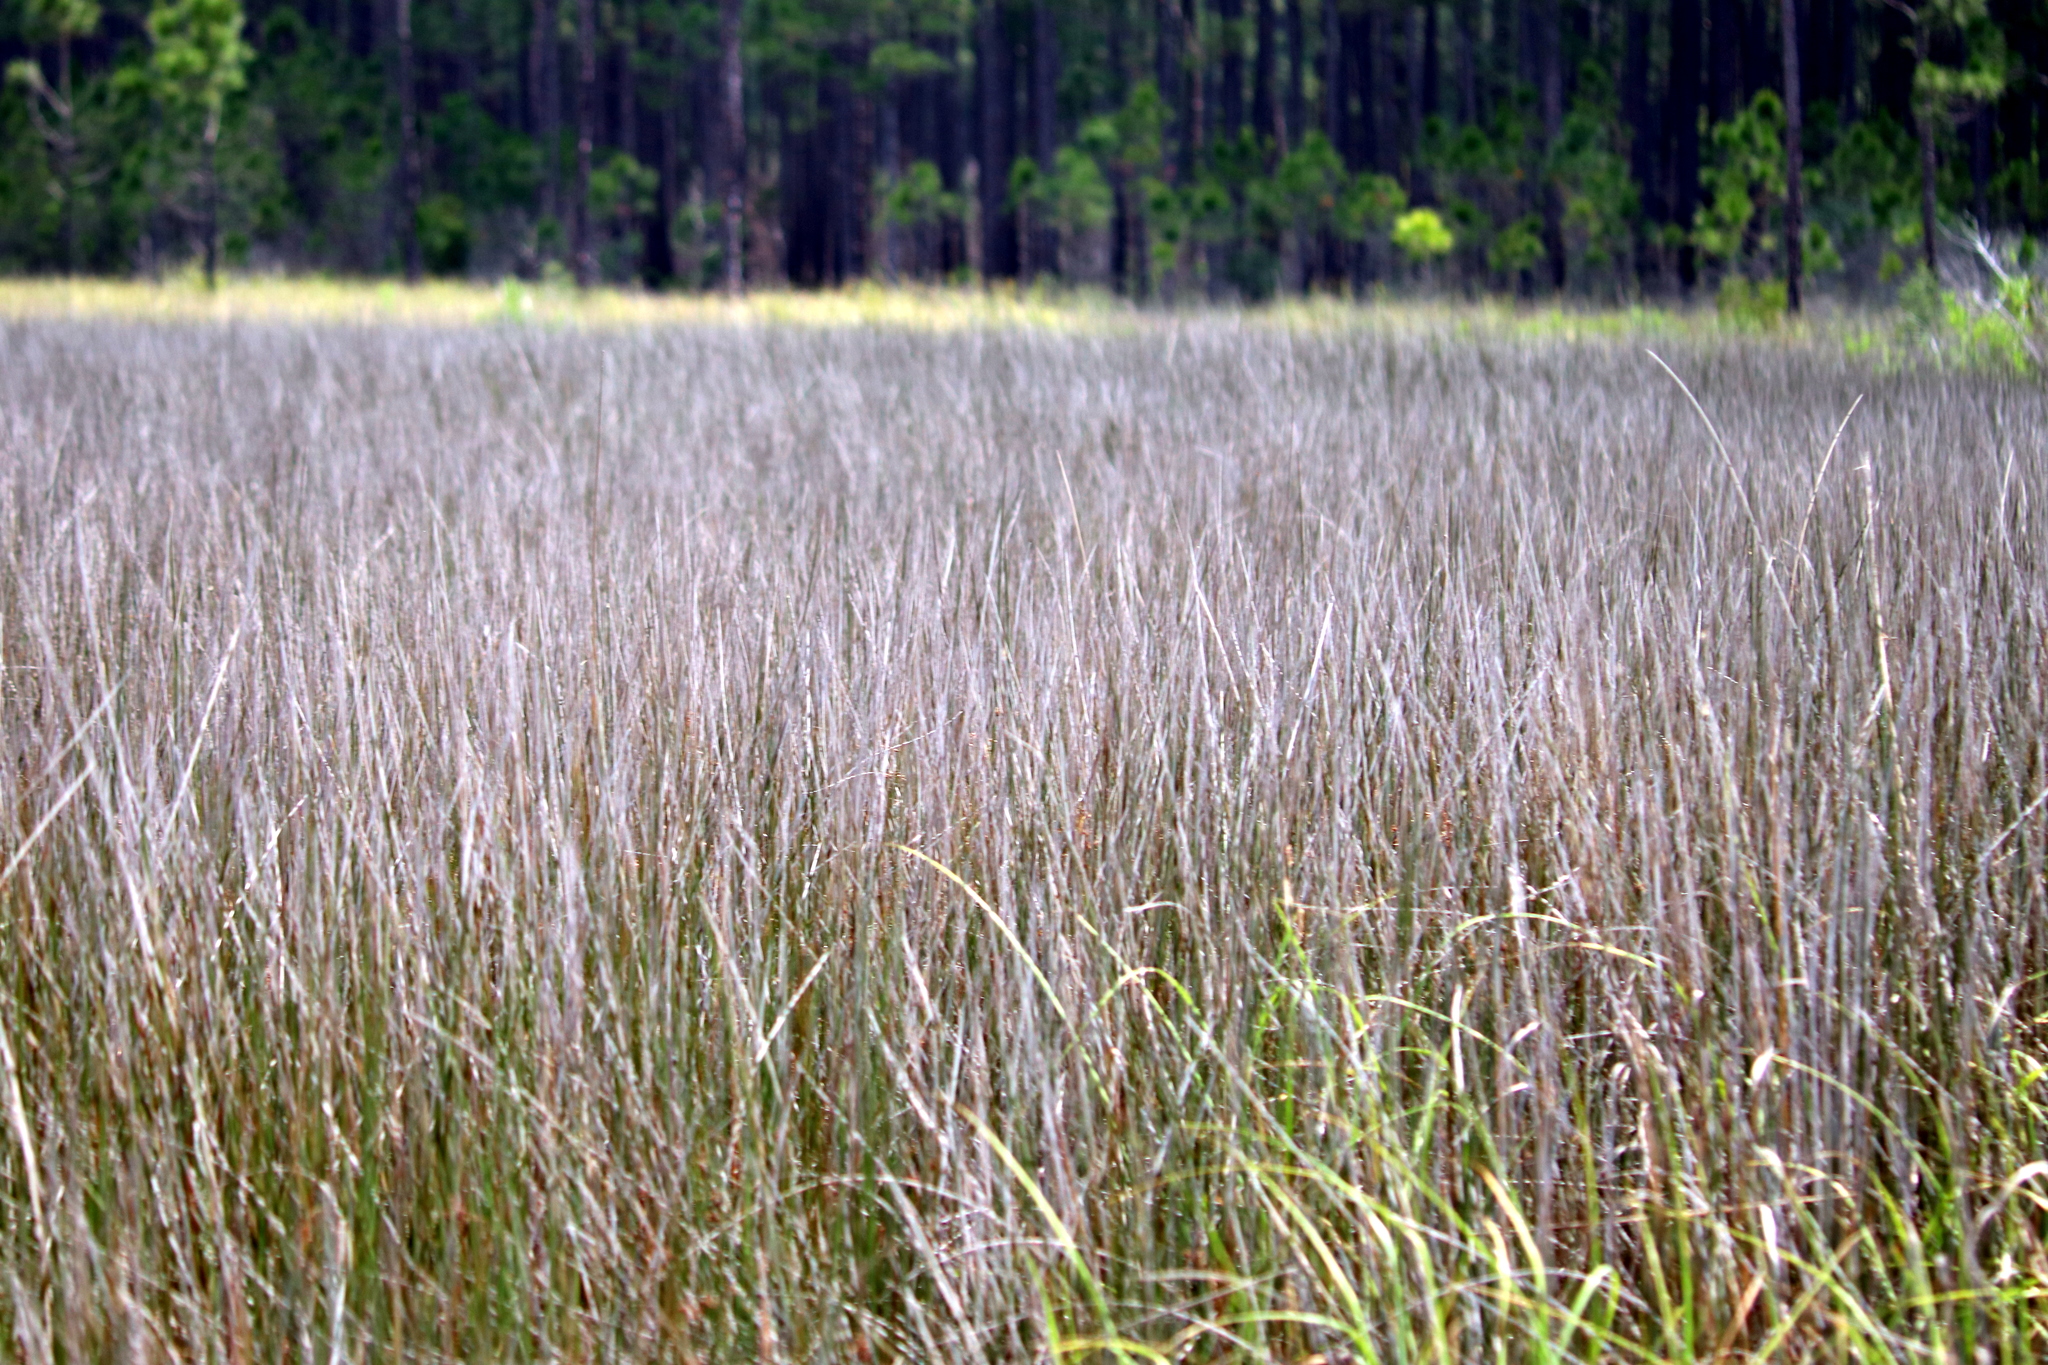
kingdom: Plantae
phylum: Tracheophyta
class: Liliopsida
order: Poales
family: Juncaceae
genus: Juncus
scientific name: Juncus roemerianus
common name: Roemer's rush
